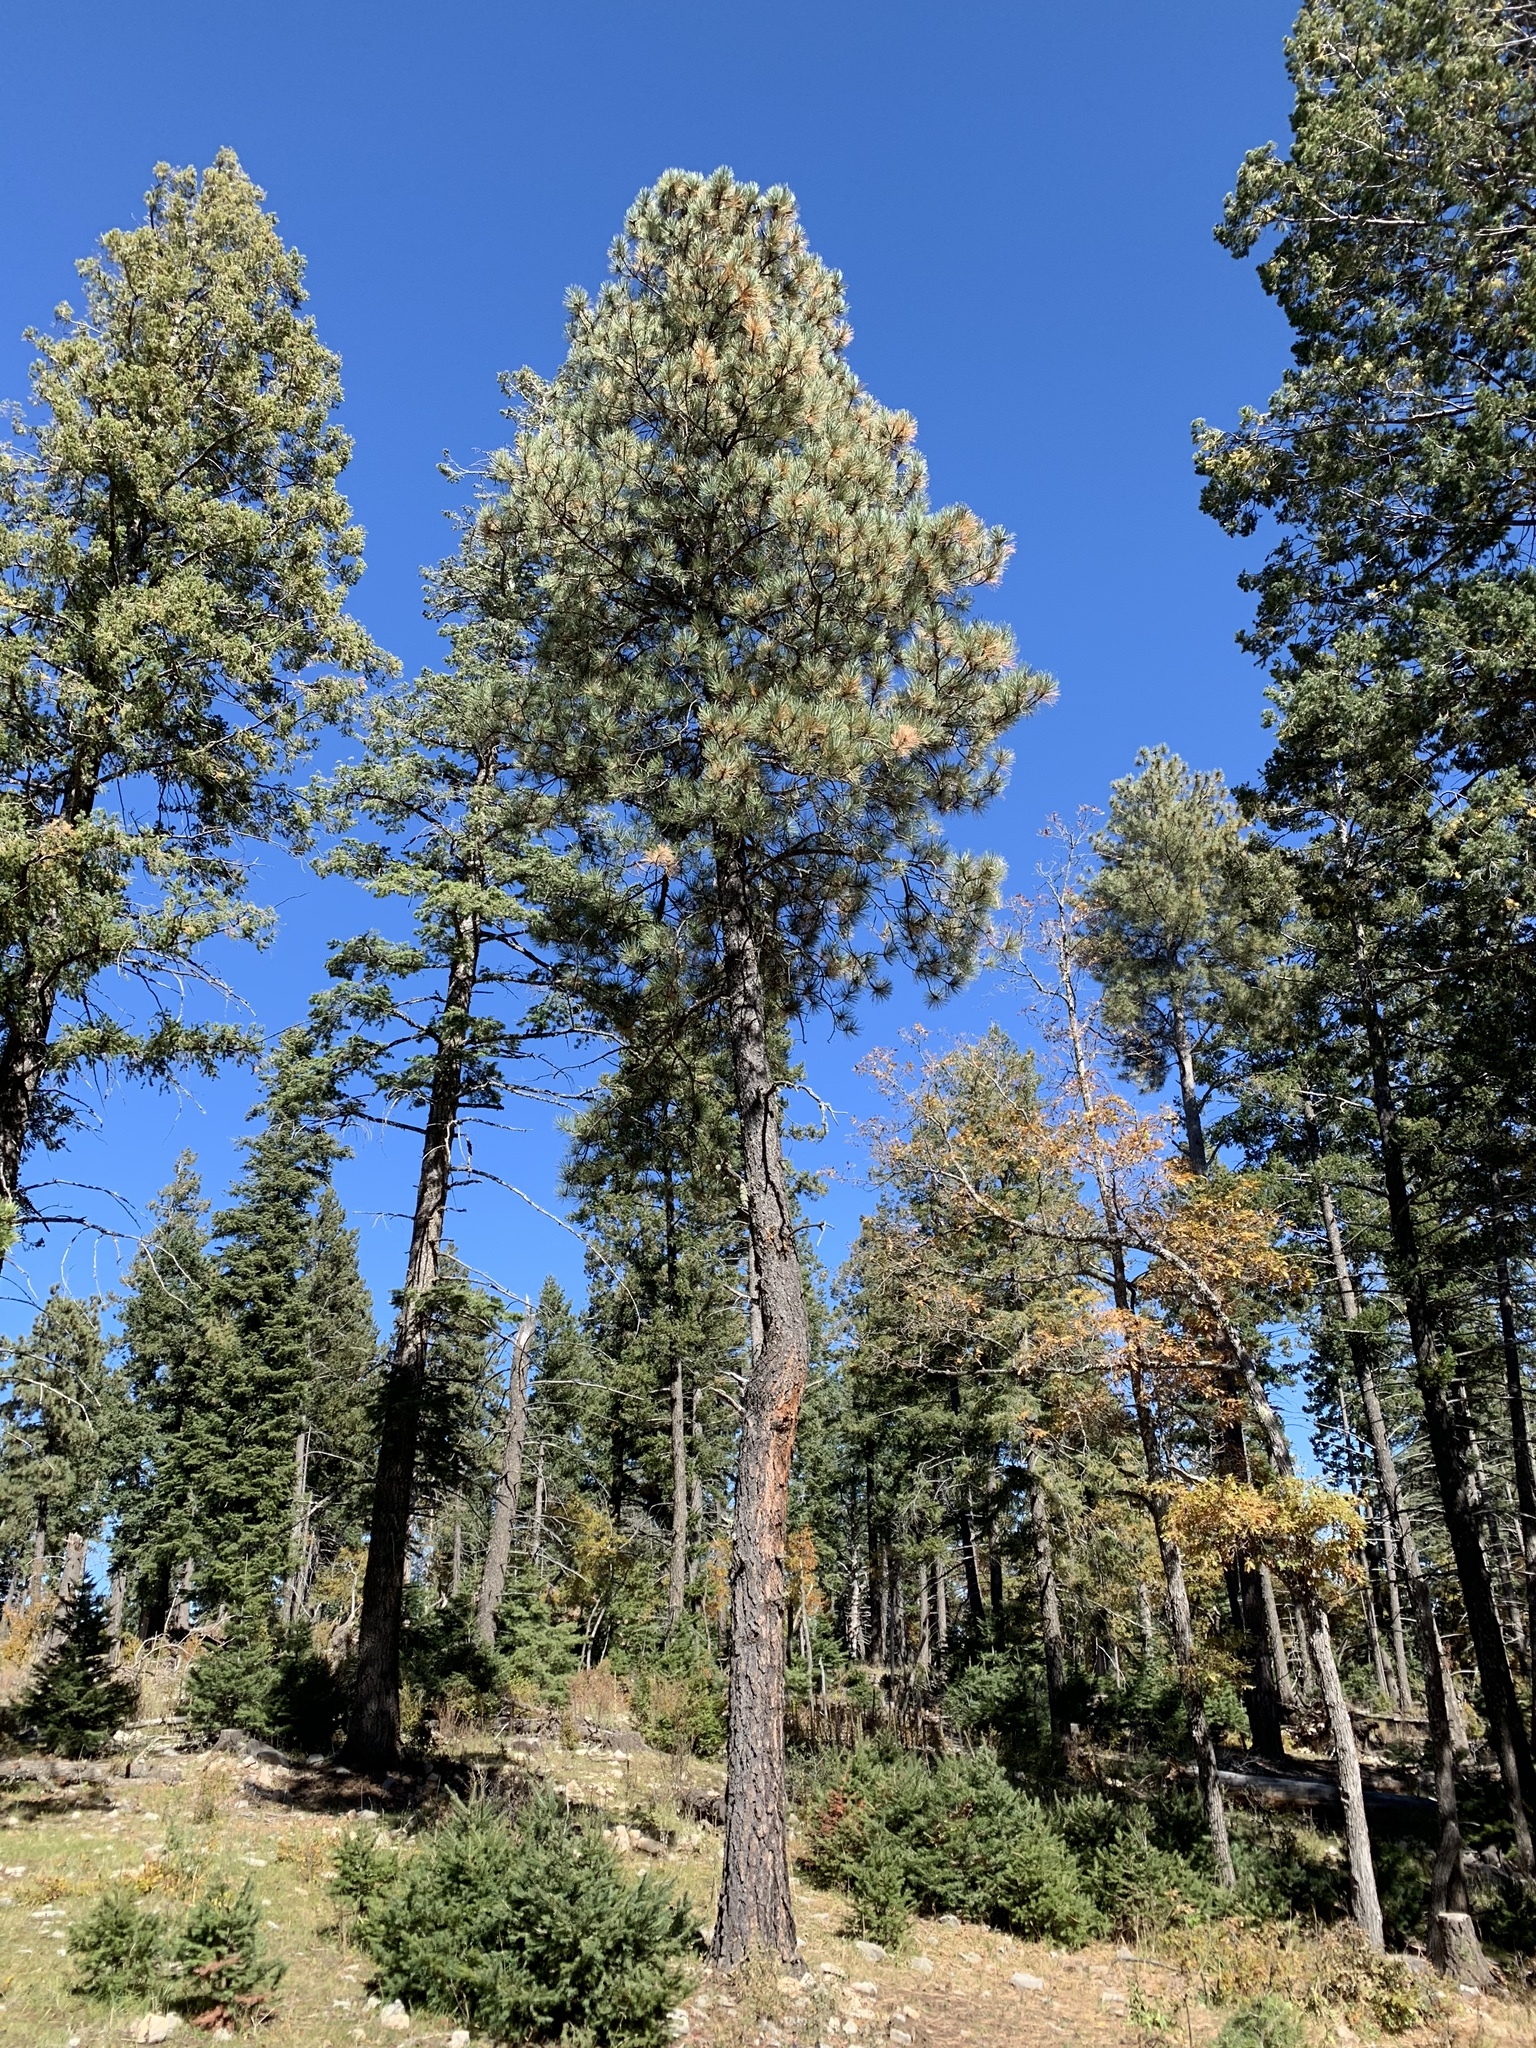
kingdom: Plantae
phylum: Tracheophyta
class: Pinopsida
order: Pinales
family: Pinaceae
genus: Pinus
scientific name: Pinus ponderosa
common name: Western yellow-pine
